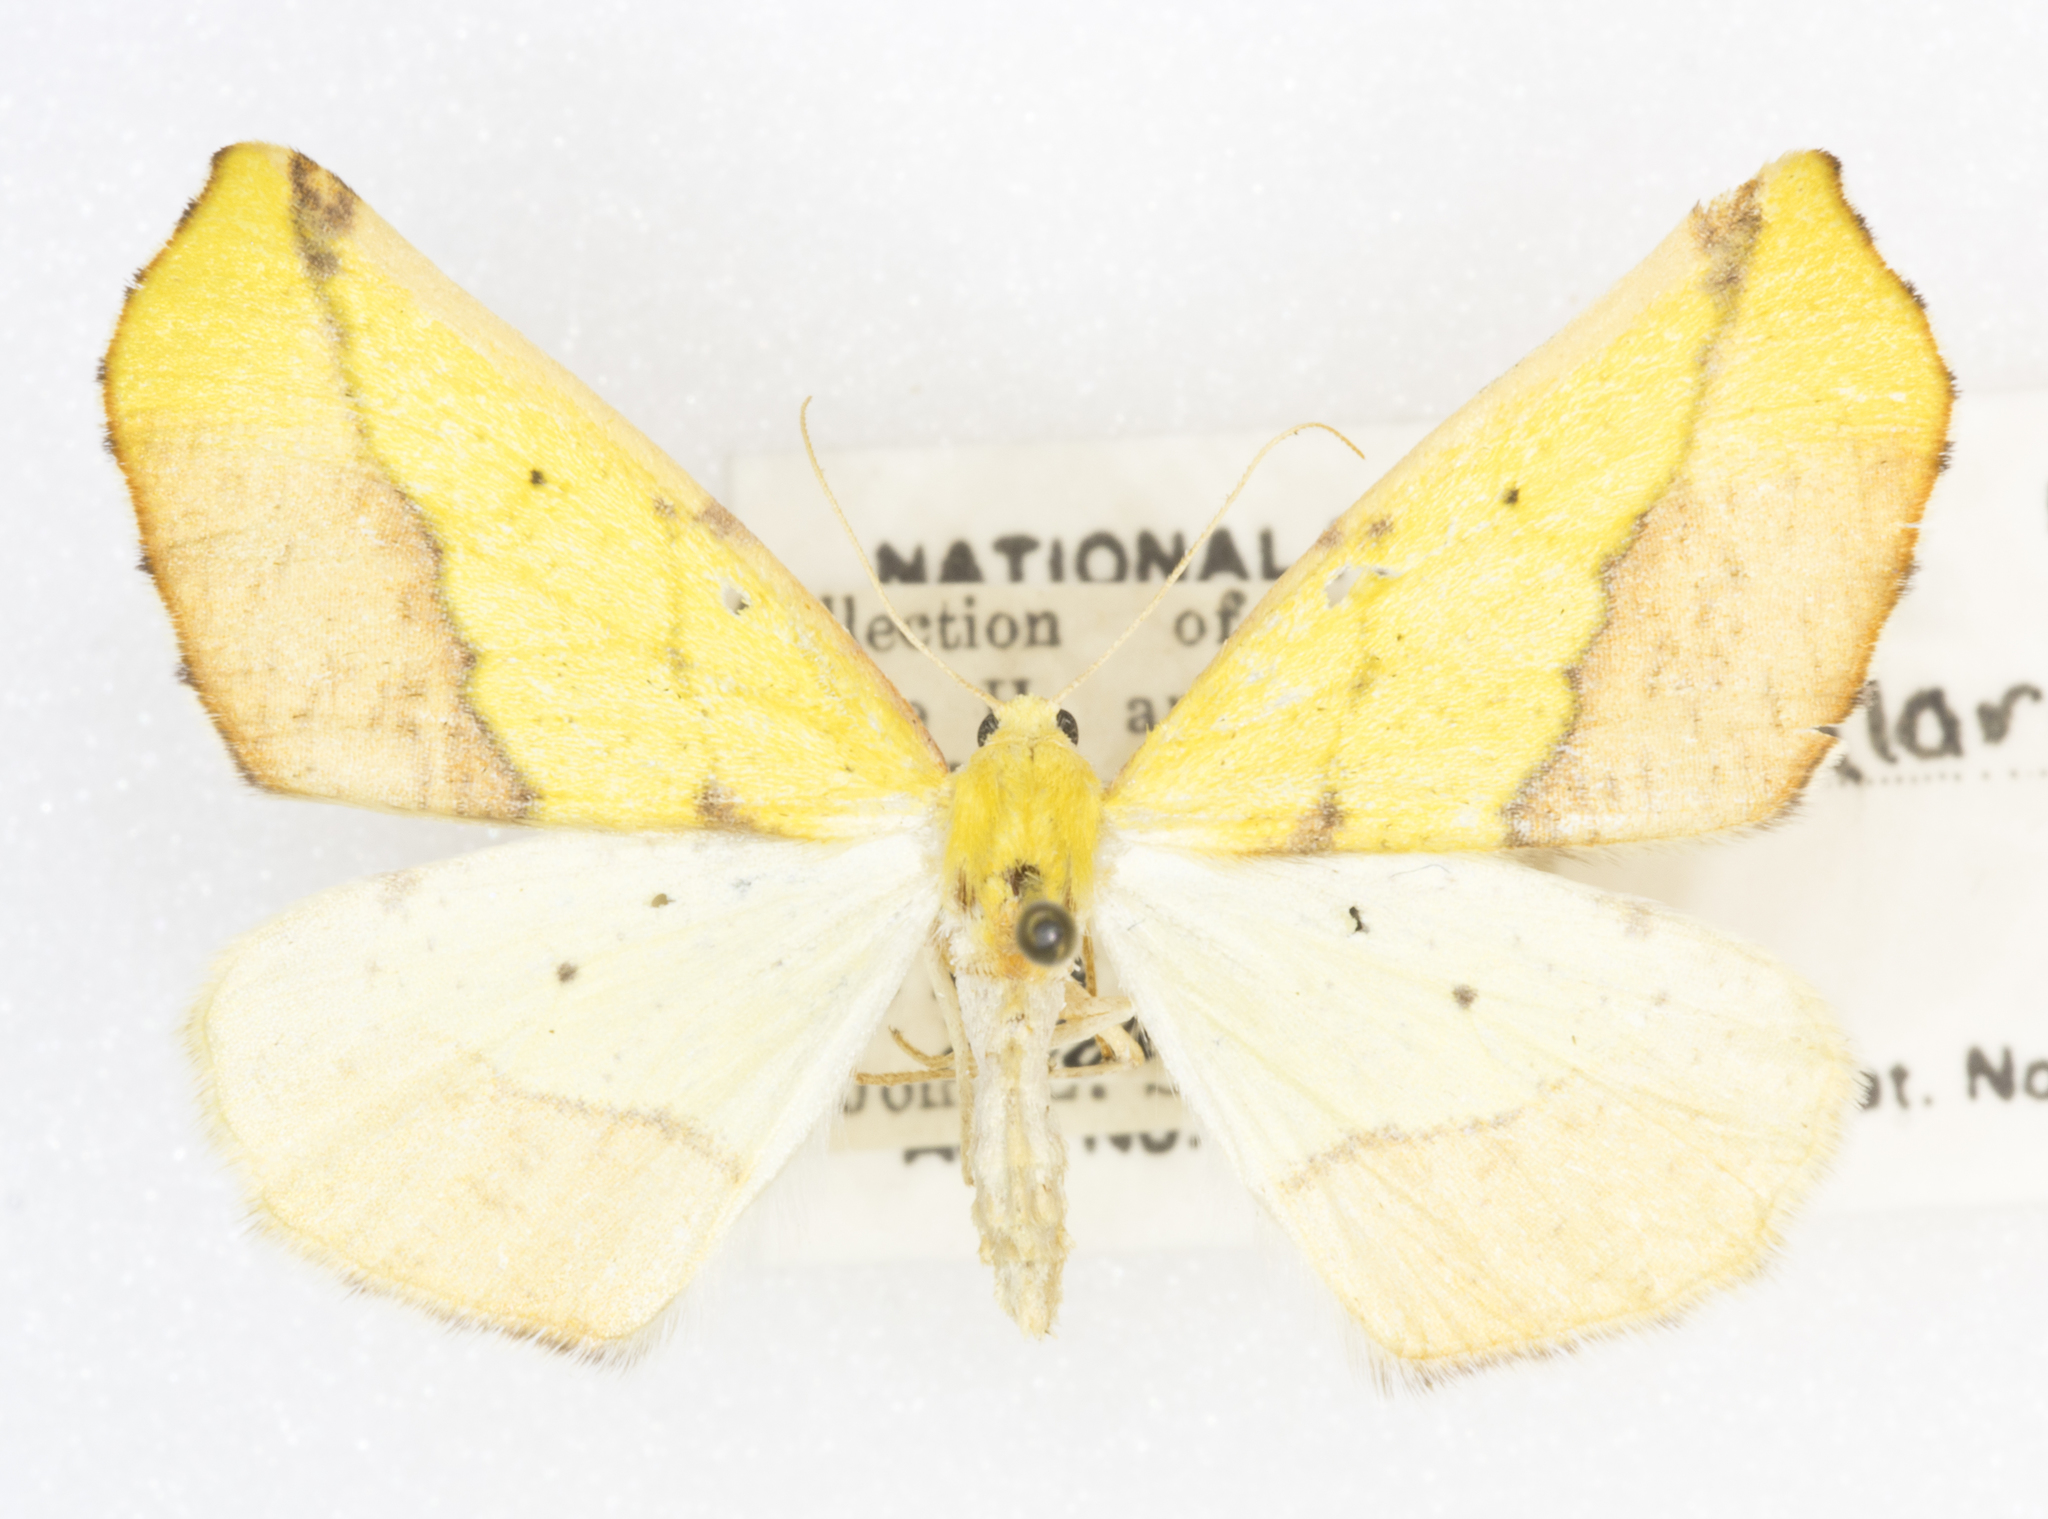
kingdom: Animalia
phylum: Arthropoda
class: Insecta
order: Lepidoptera
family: Geometridae
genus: Sicya
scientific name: Sicya macularia
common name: Sharp-lined yellow
